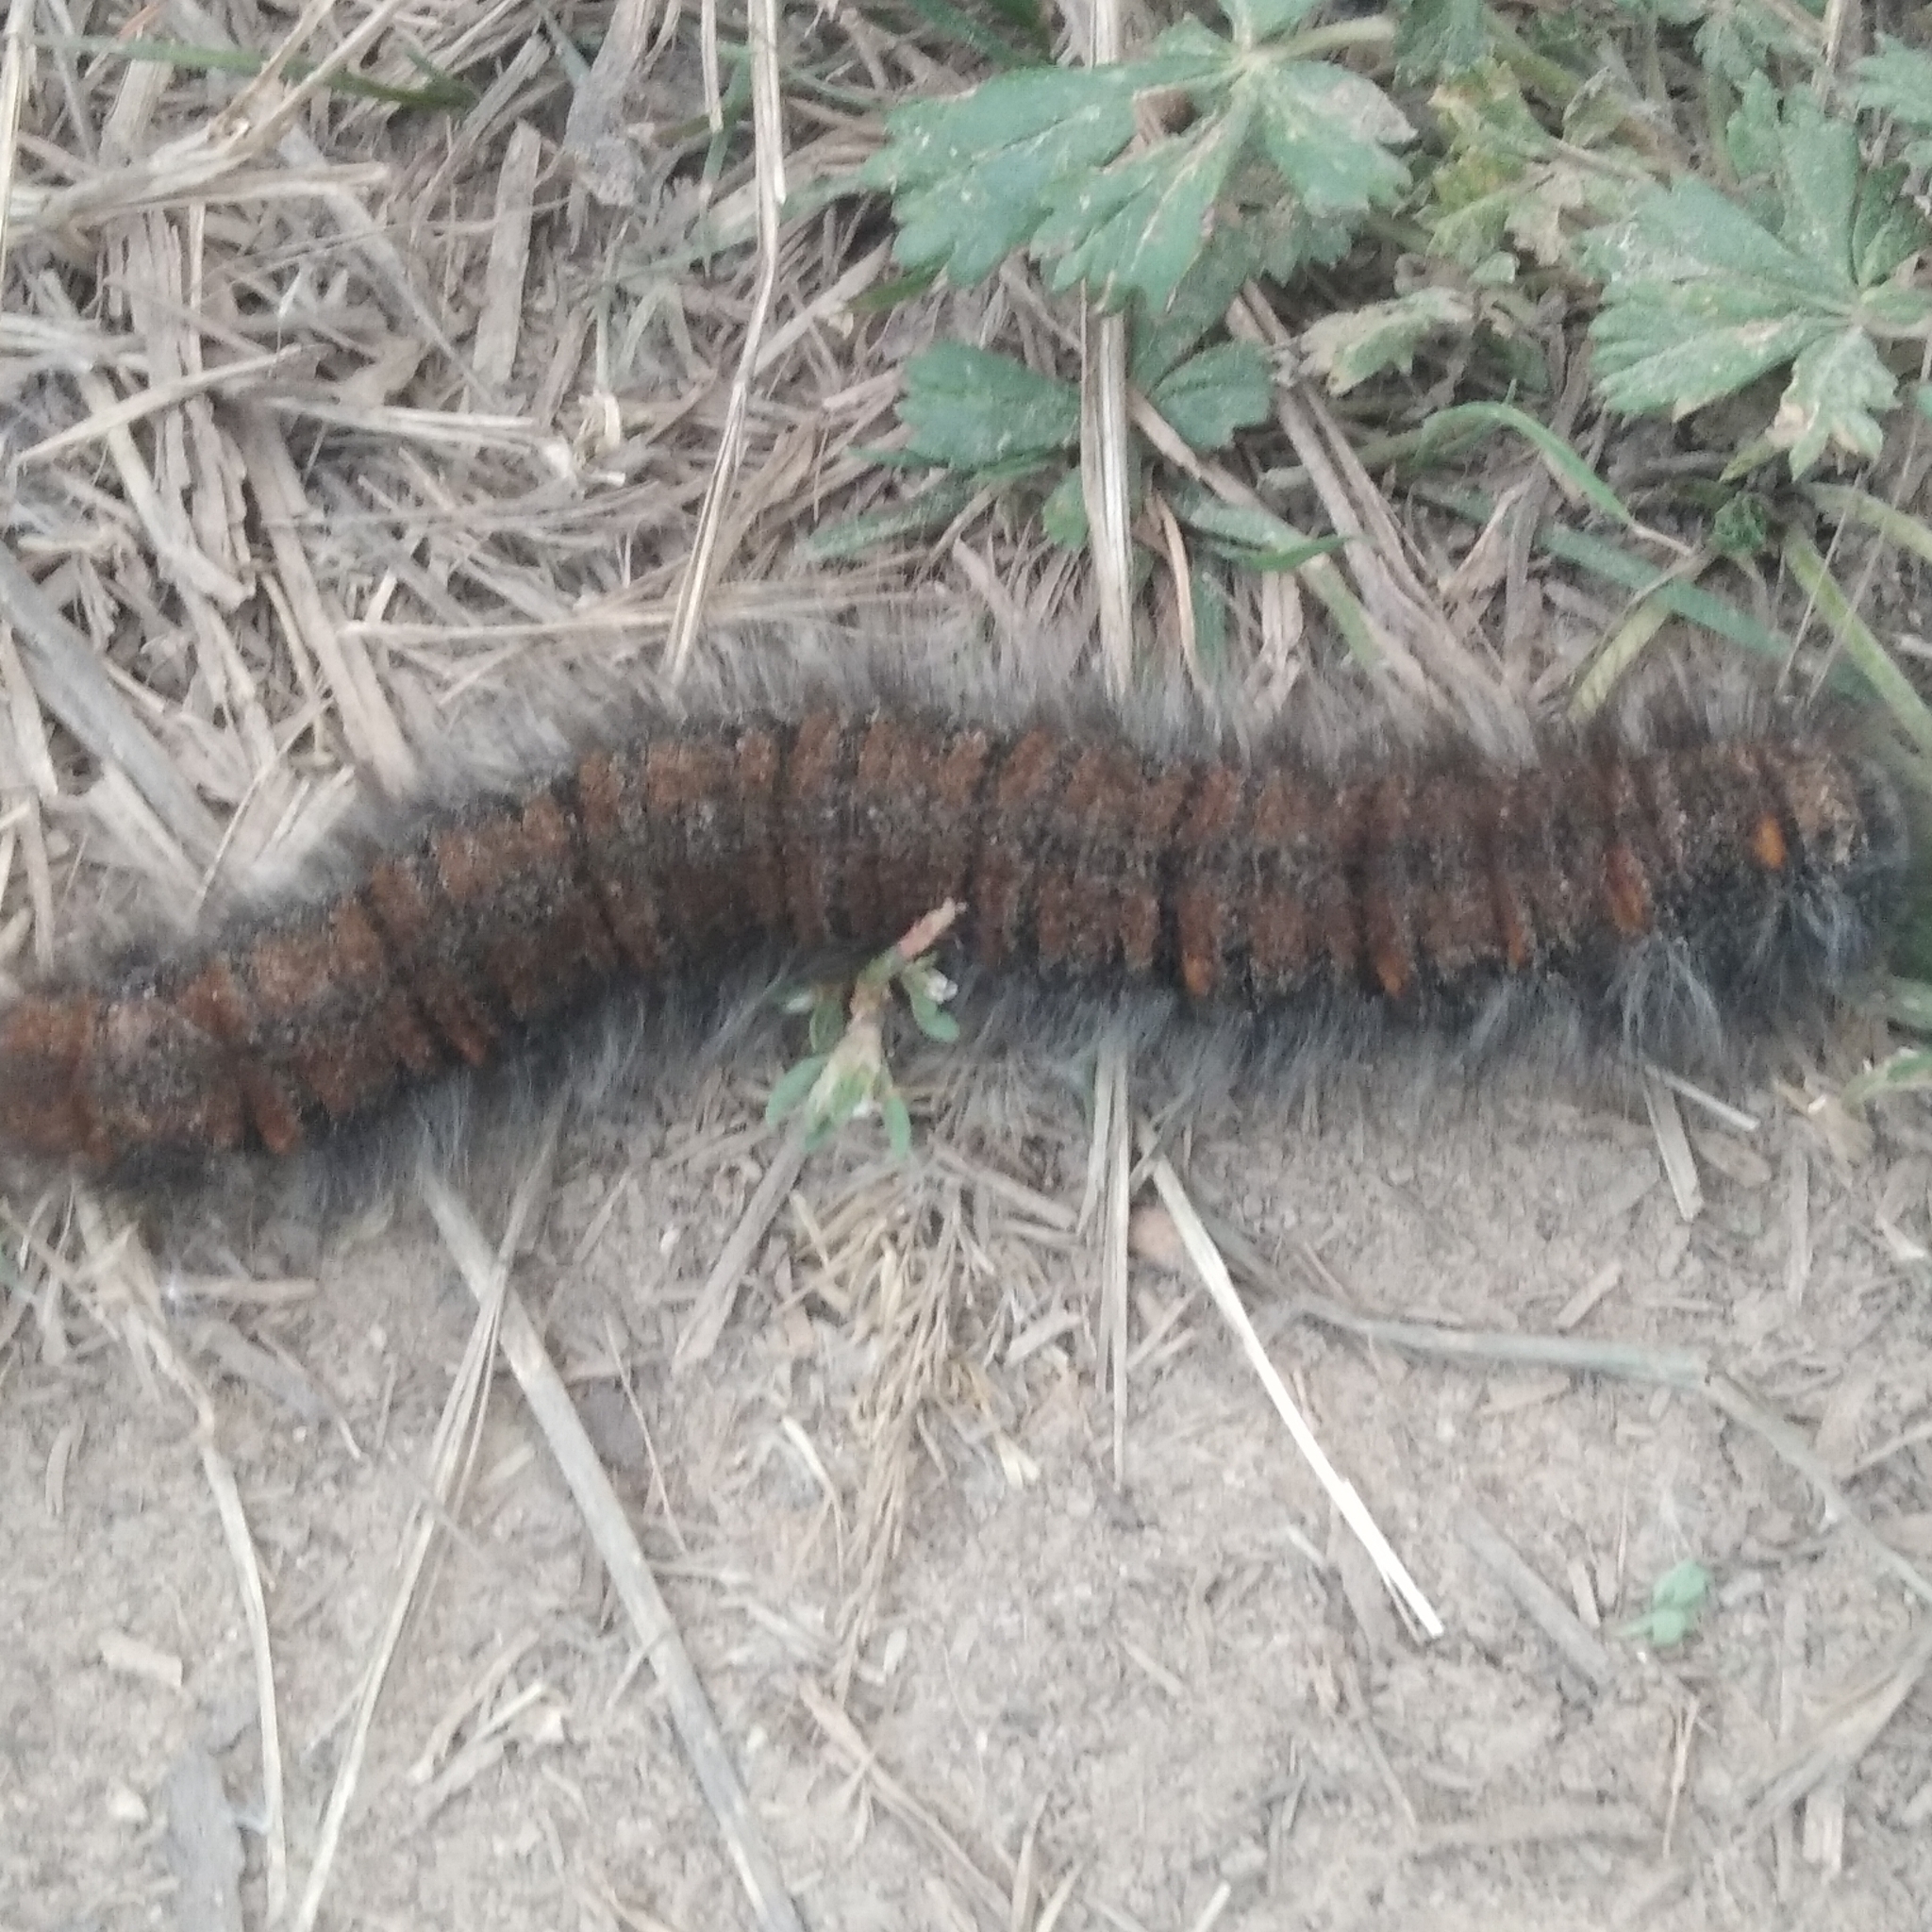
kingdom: Animalia
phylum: Arthropoda
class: Insecta
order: Lepidoptera
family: Lasiocampidae
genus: Macrothylacia
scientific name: Macrothylacia rubi
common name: Fox moth
